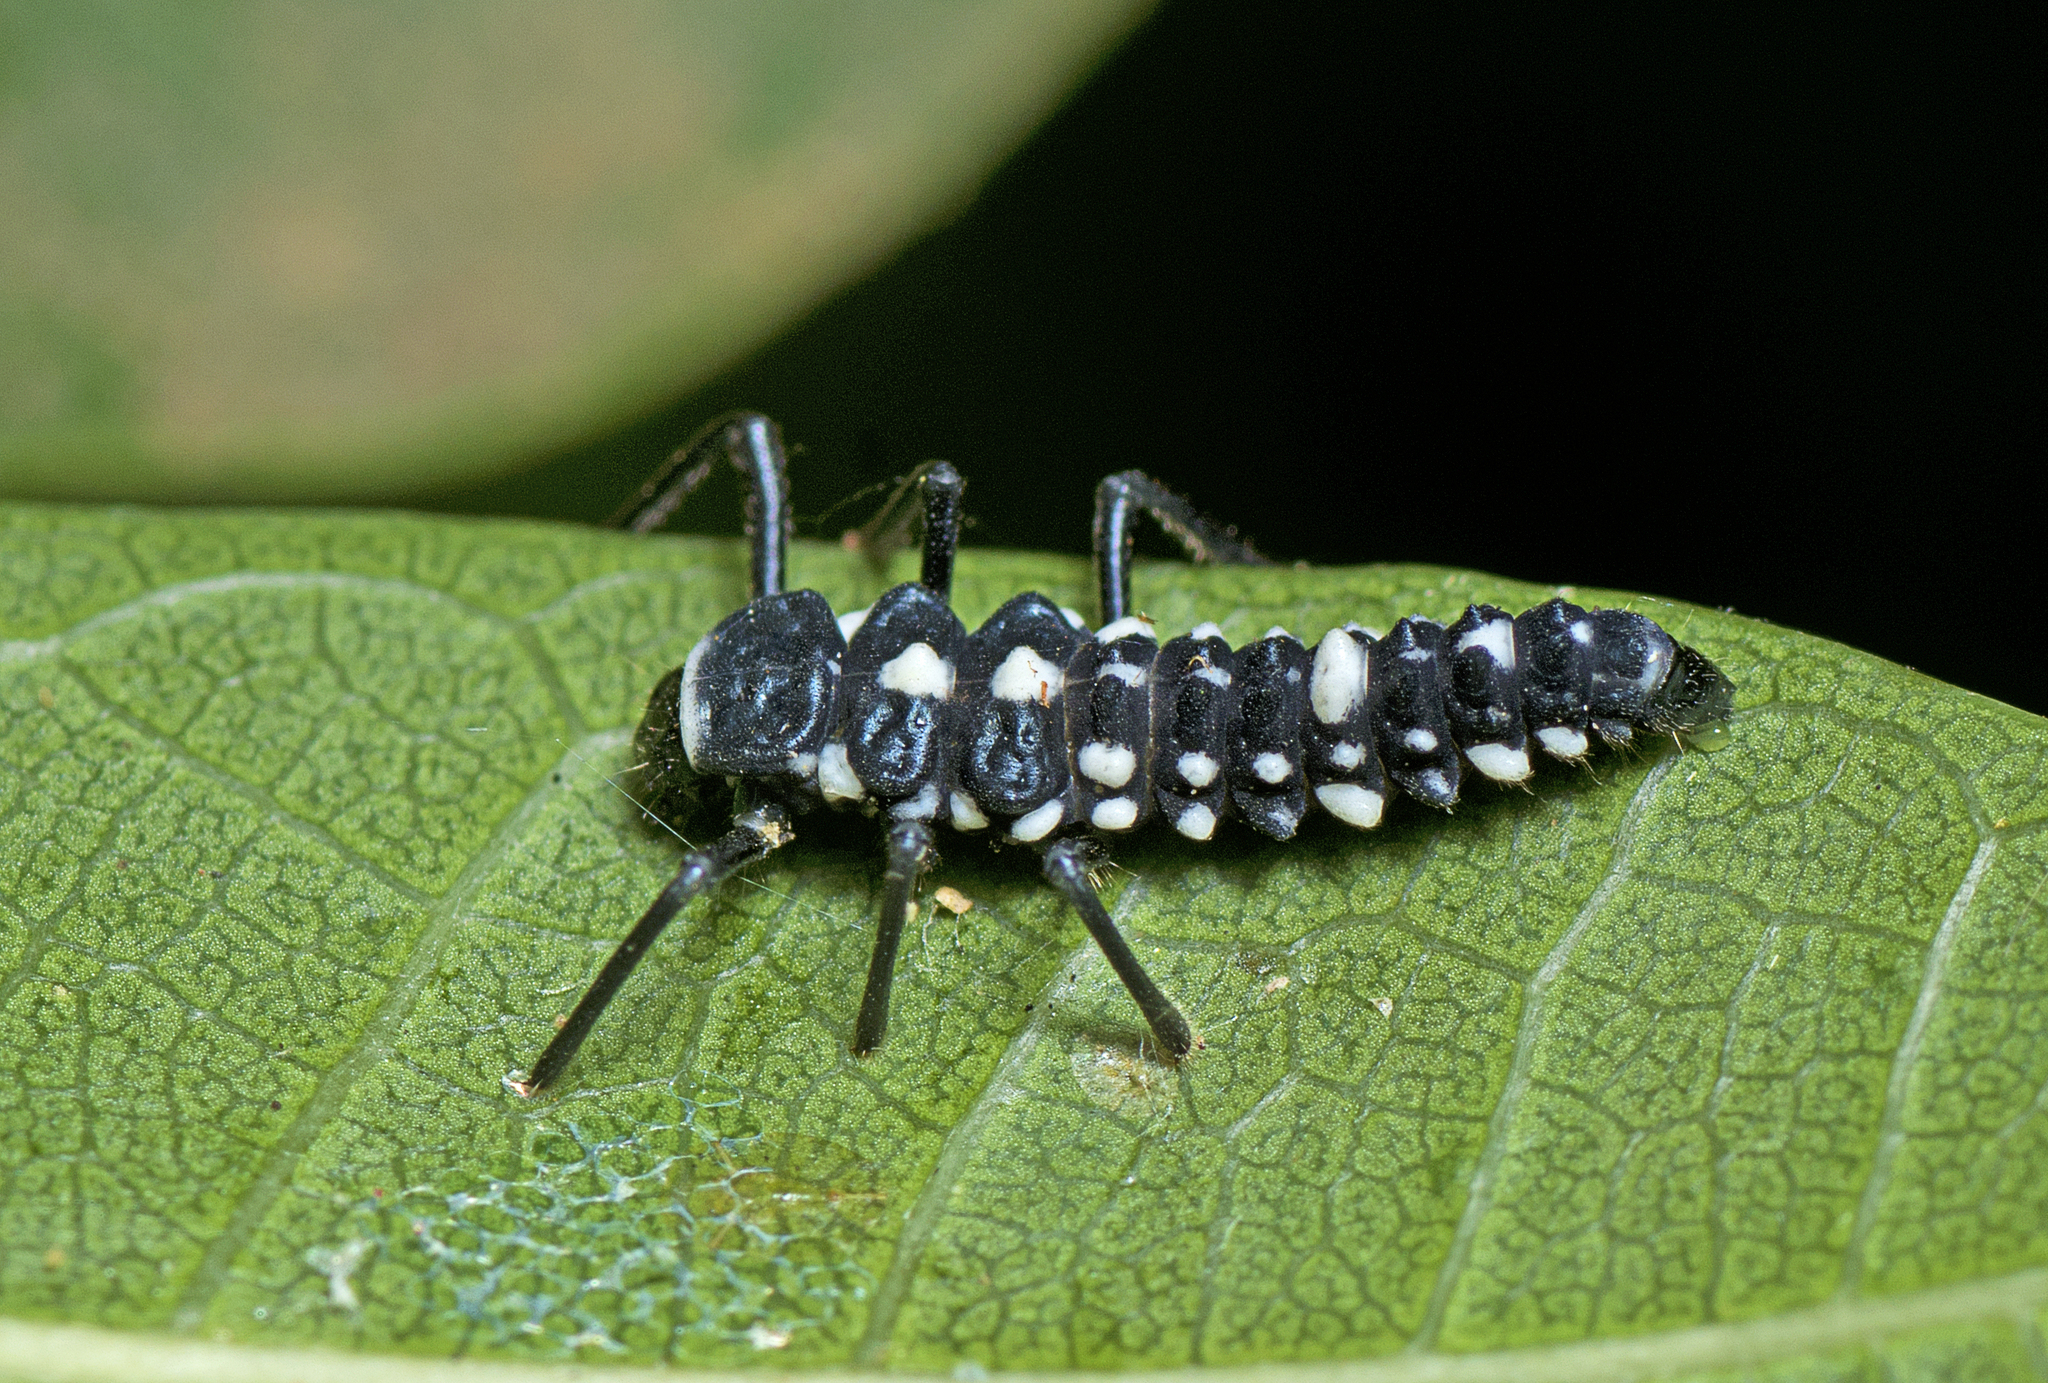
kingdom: Animalia
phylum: Arthropoda
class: Insecta
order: Coleoptera
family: Coccinellidae
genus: Cleobora
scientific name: Cleobora
